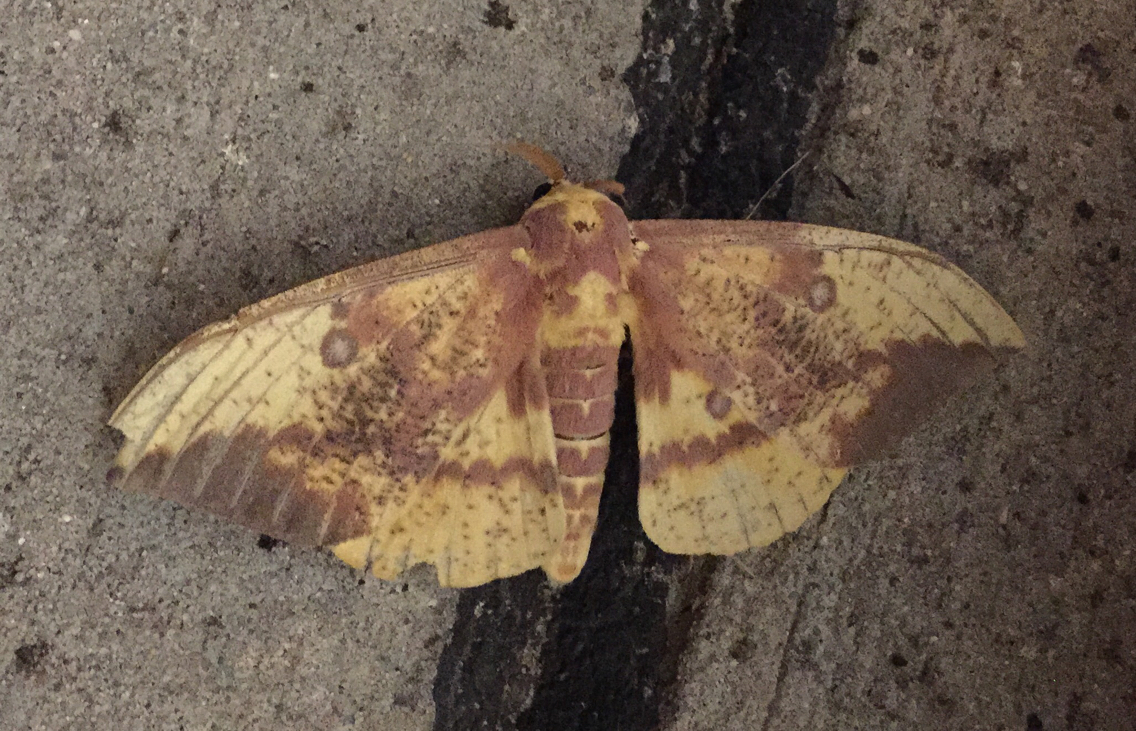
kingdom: Animalia
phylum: Arthropoda
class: Insecta
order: Lepidoptera
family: Saturniidae
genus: Eacles
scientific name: Eacles imperialis
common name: Imperial moth
